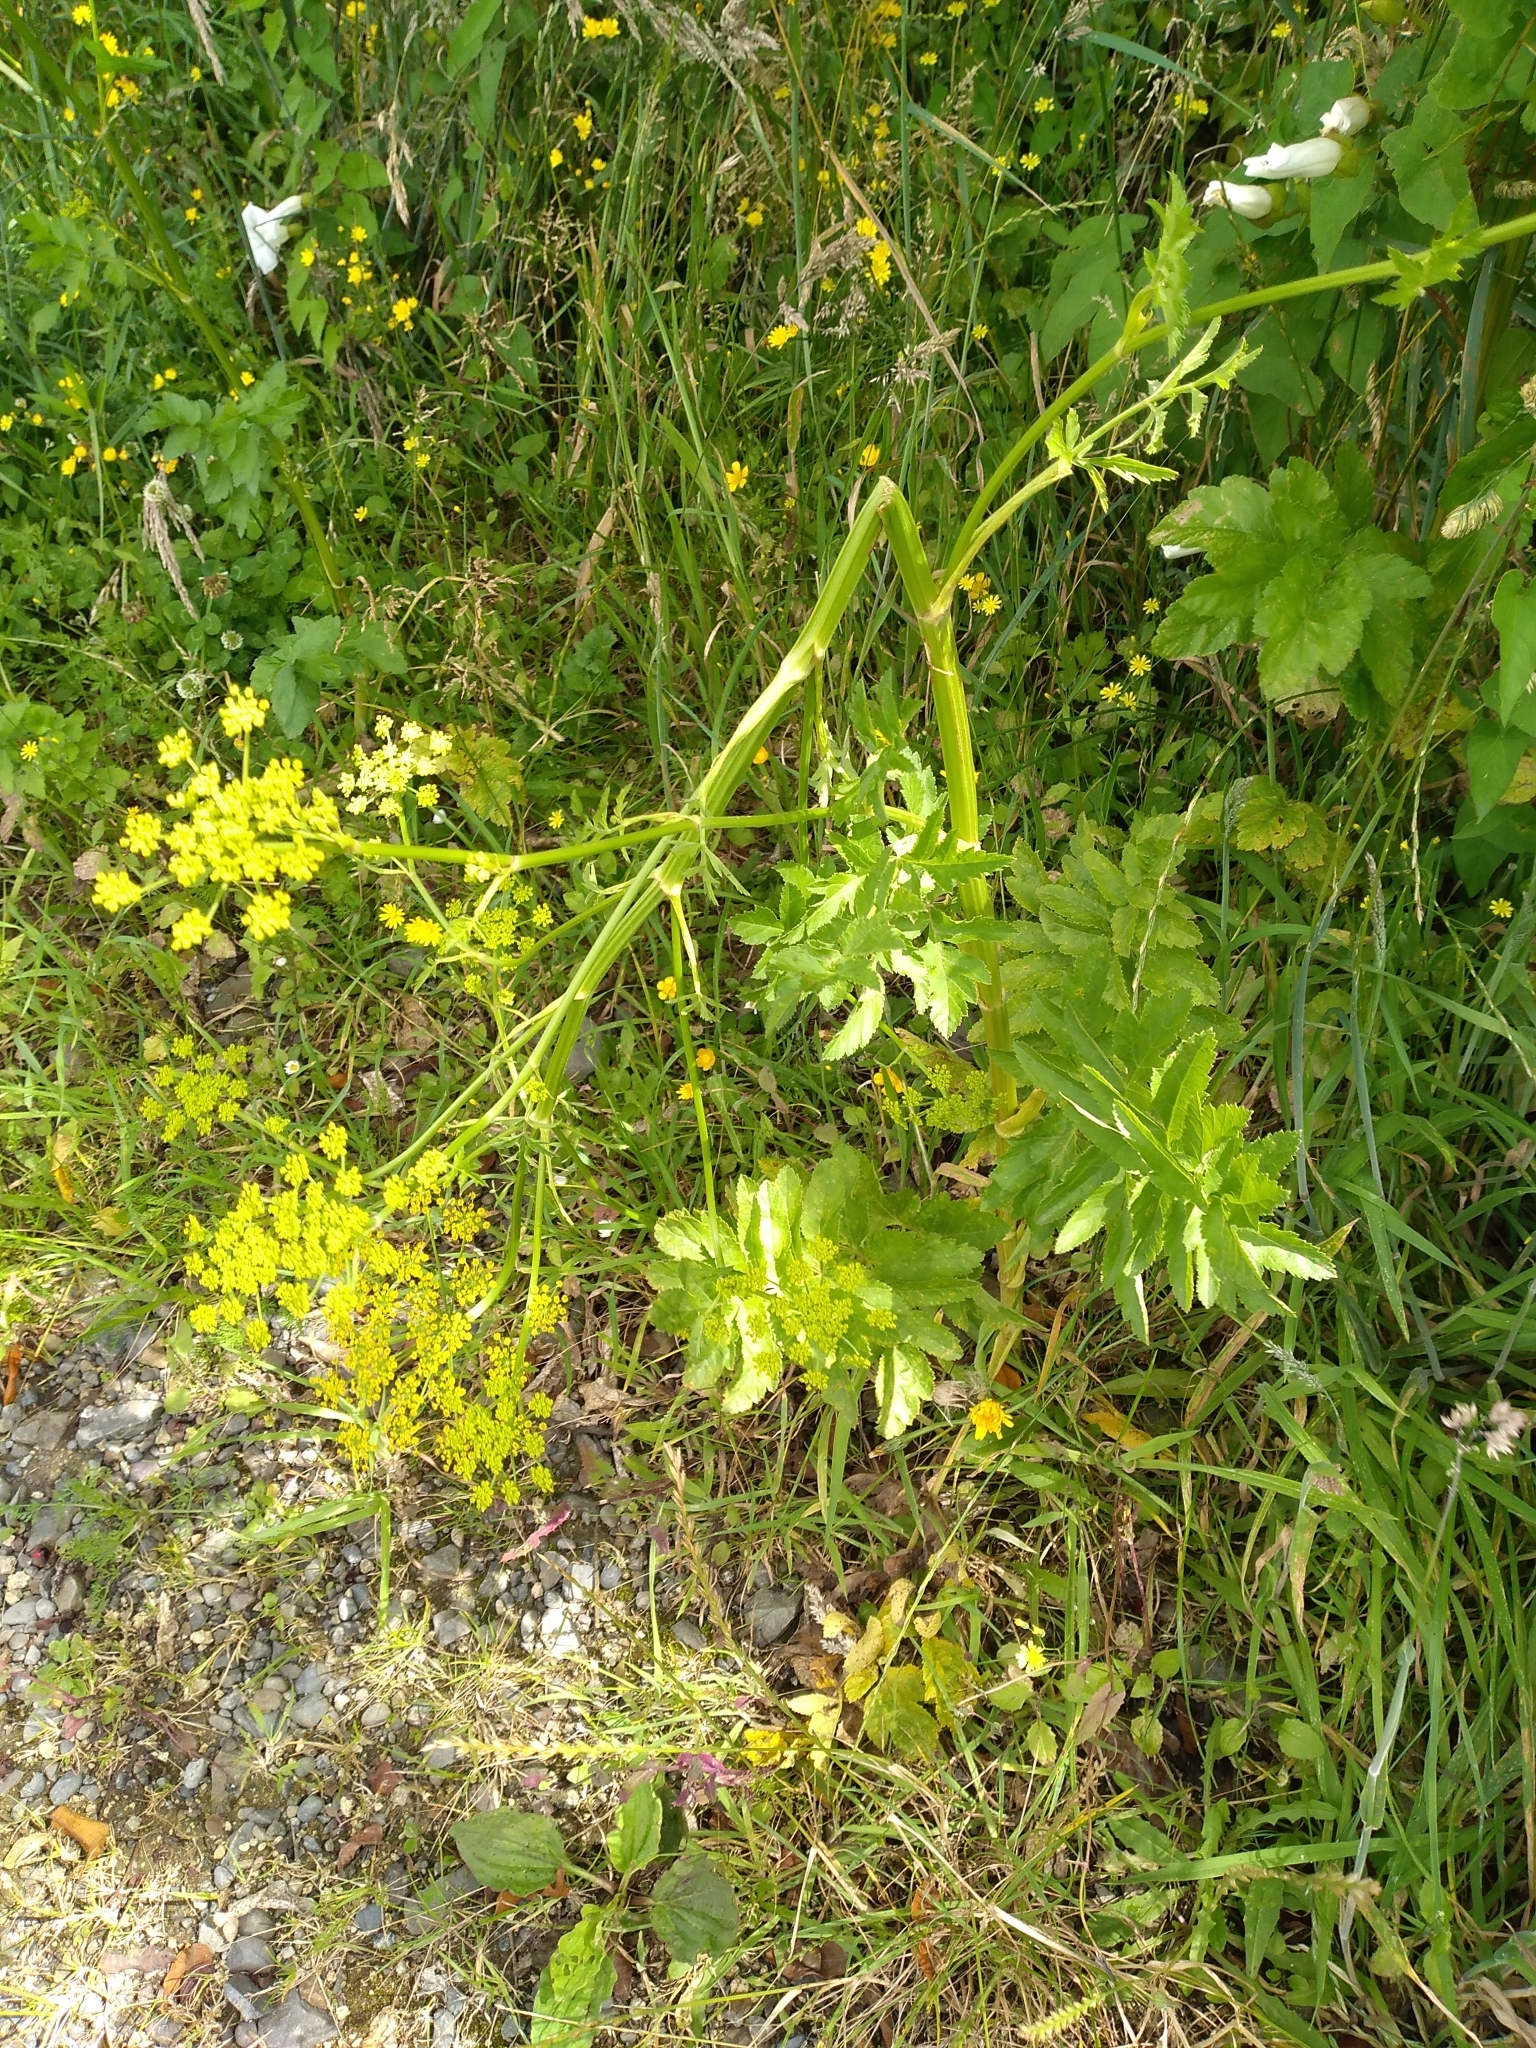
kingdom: Plantae
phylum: Tracheophyta
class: Magnoliopsida
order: Apiales
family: Apiaceae
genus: Pastinaca
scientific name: Pastinaca sativa
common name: Wild parsnip
